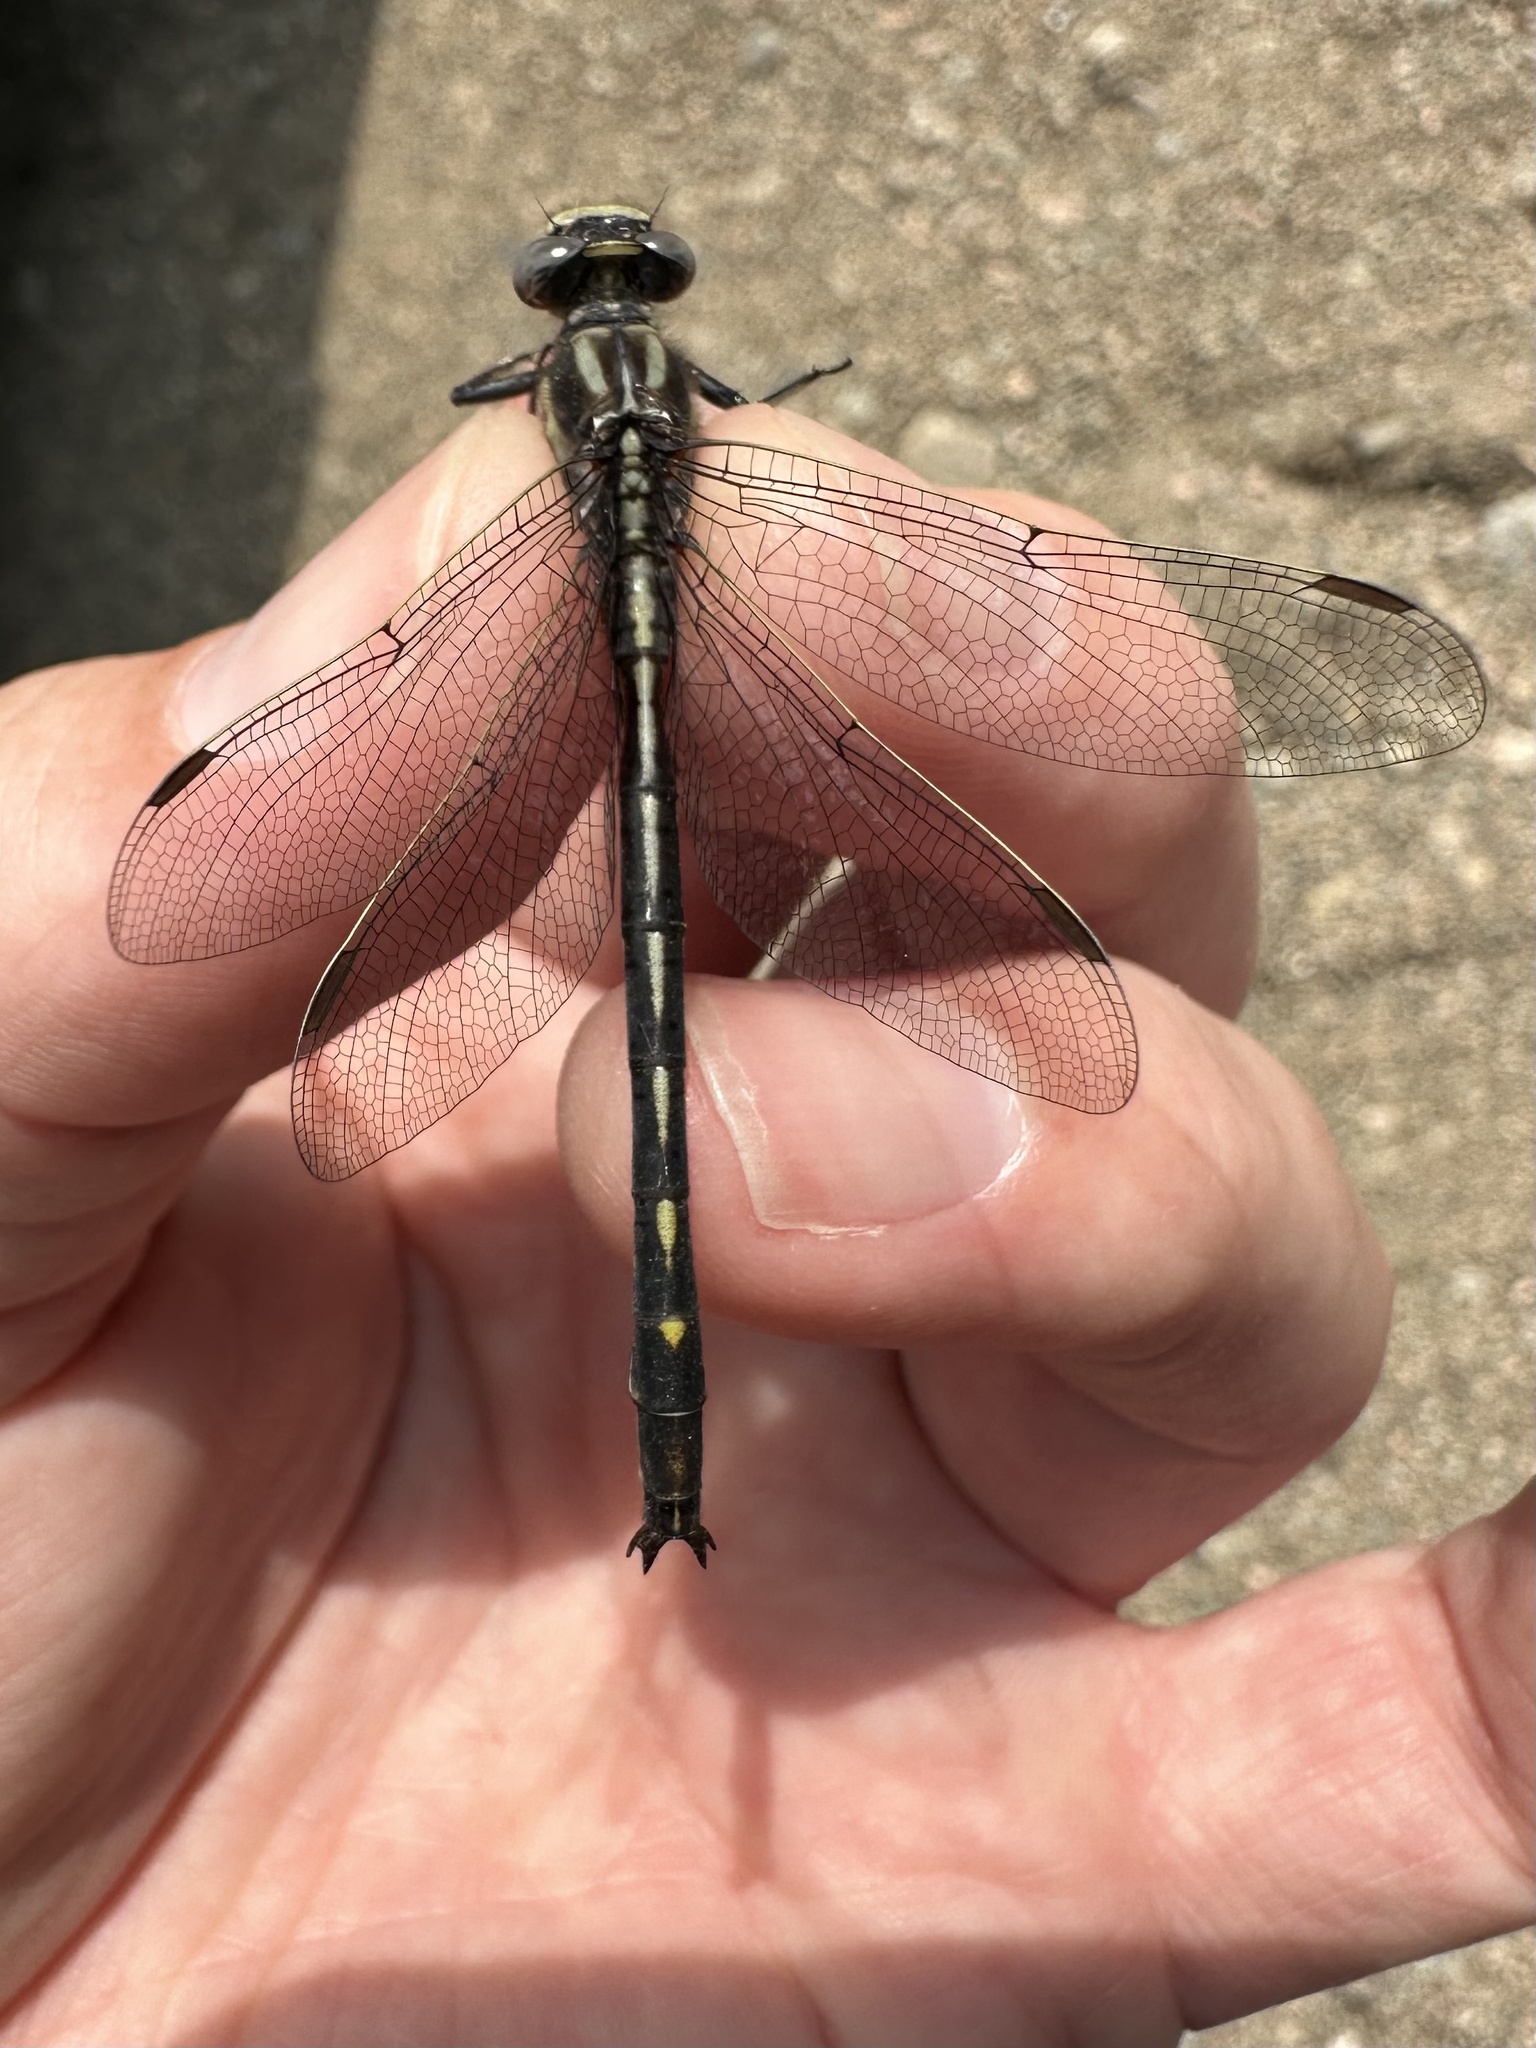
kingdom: Animalia
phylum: Arthropoda
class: Insecta
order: Odonata
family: Gomphidae
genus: Phanogomphus
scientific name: Phanogomphus spicatus
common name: Dusky clubtail
